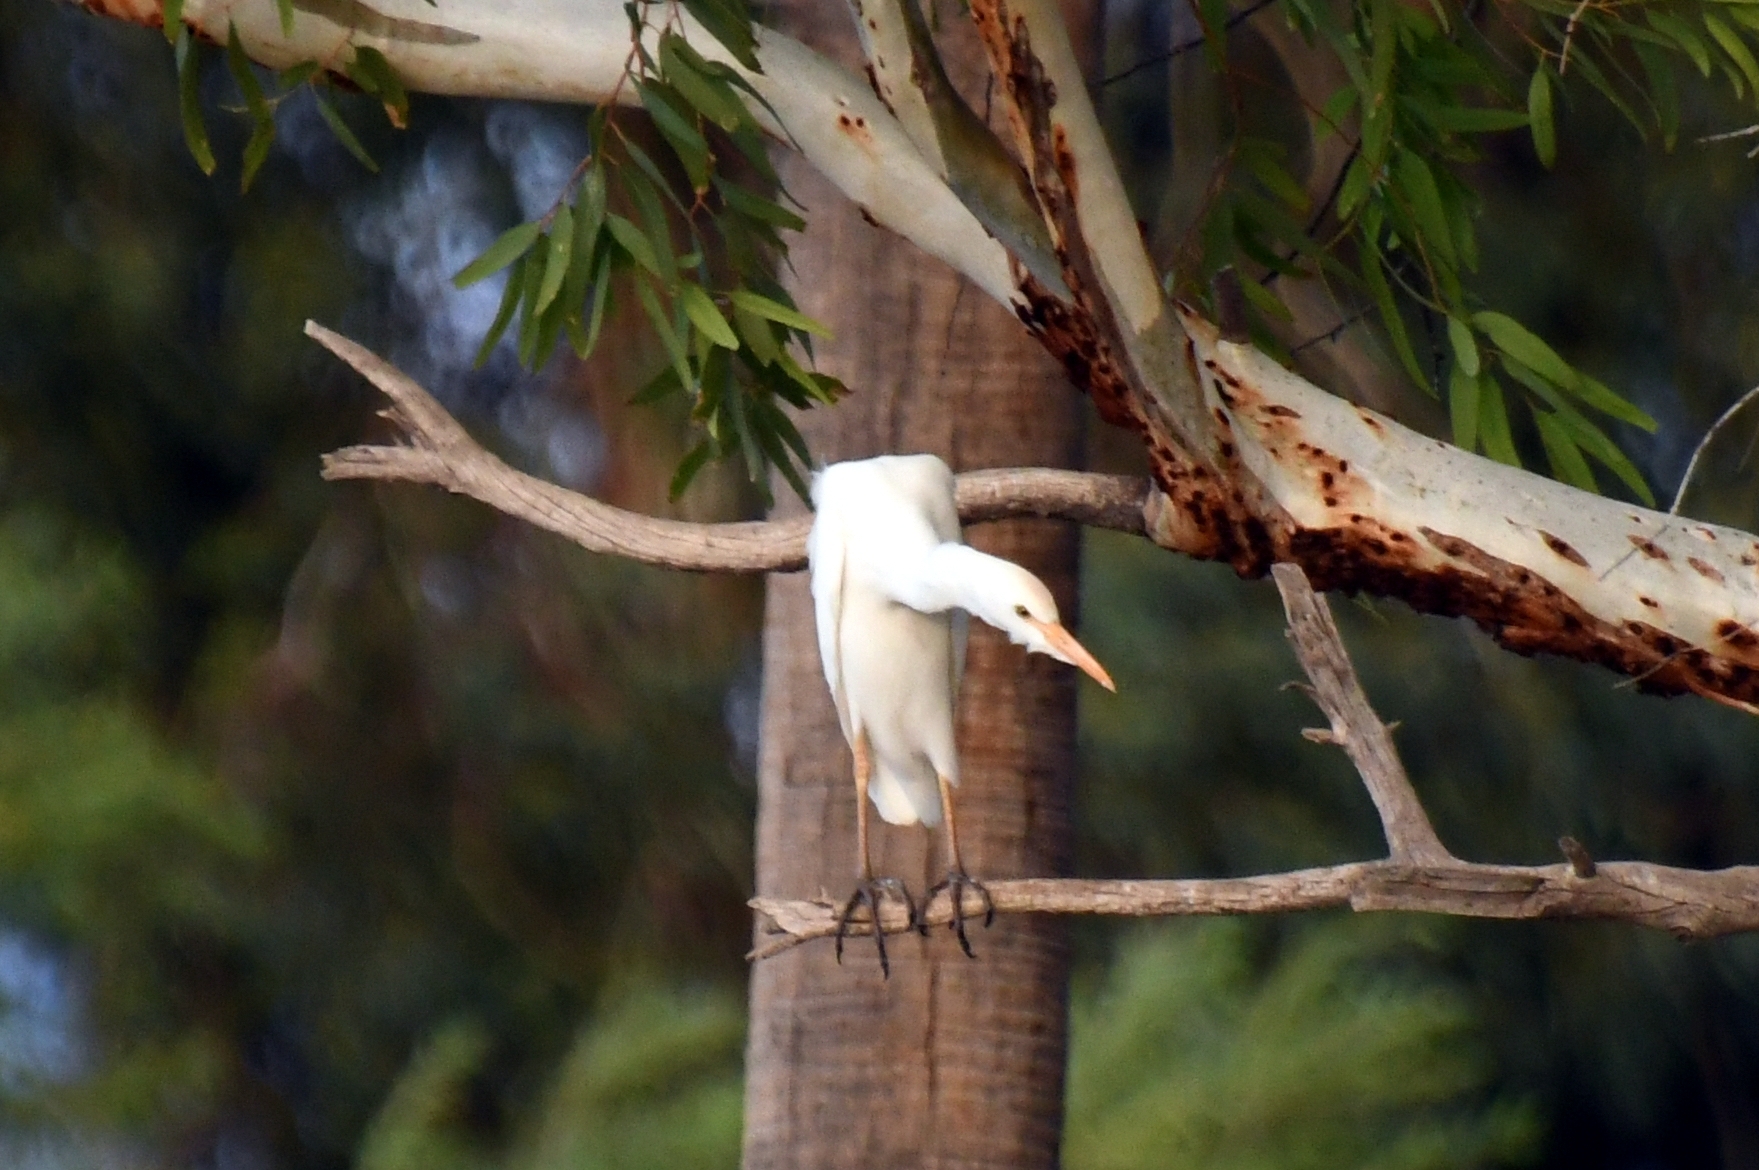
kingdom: Animalia
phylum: Chordata
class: Aves
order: Pelecaniformes
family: Ardeidae
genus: Bubulcus
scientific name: Bubulcus ibis
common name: Cattle egret
